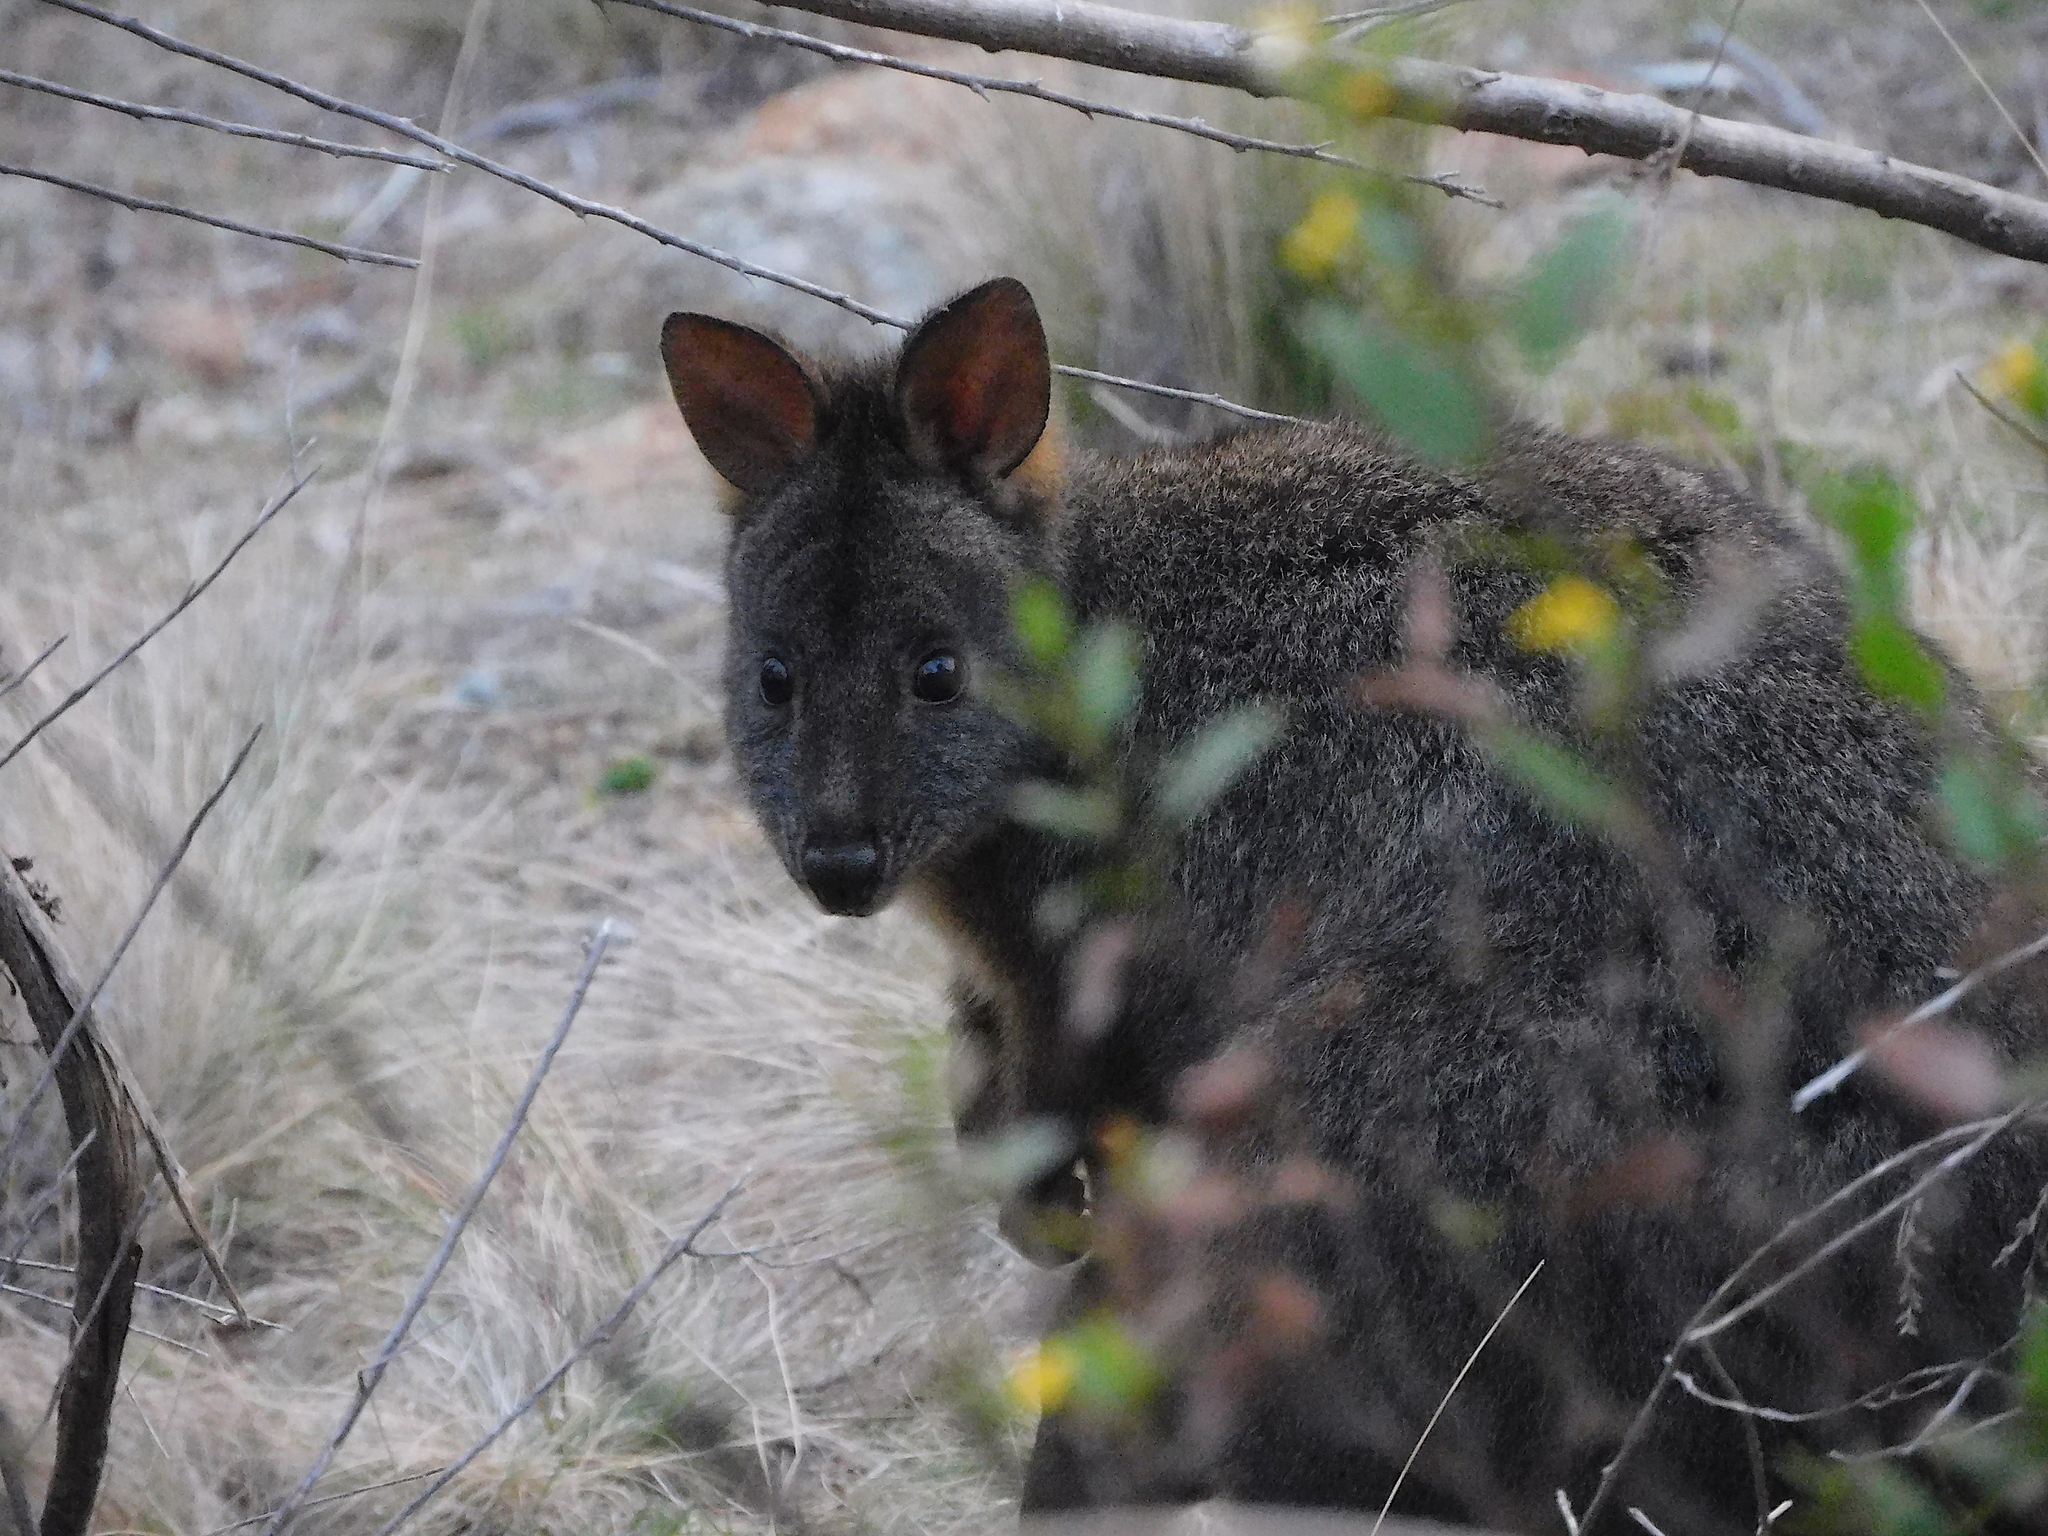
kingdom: Animalia
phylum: Chordata
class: Mammalia
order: Diprotodontia
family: Macropodidae
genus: Thylogale
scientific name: Thylogale billardierii
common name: Tasmanian pademelon
